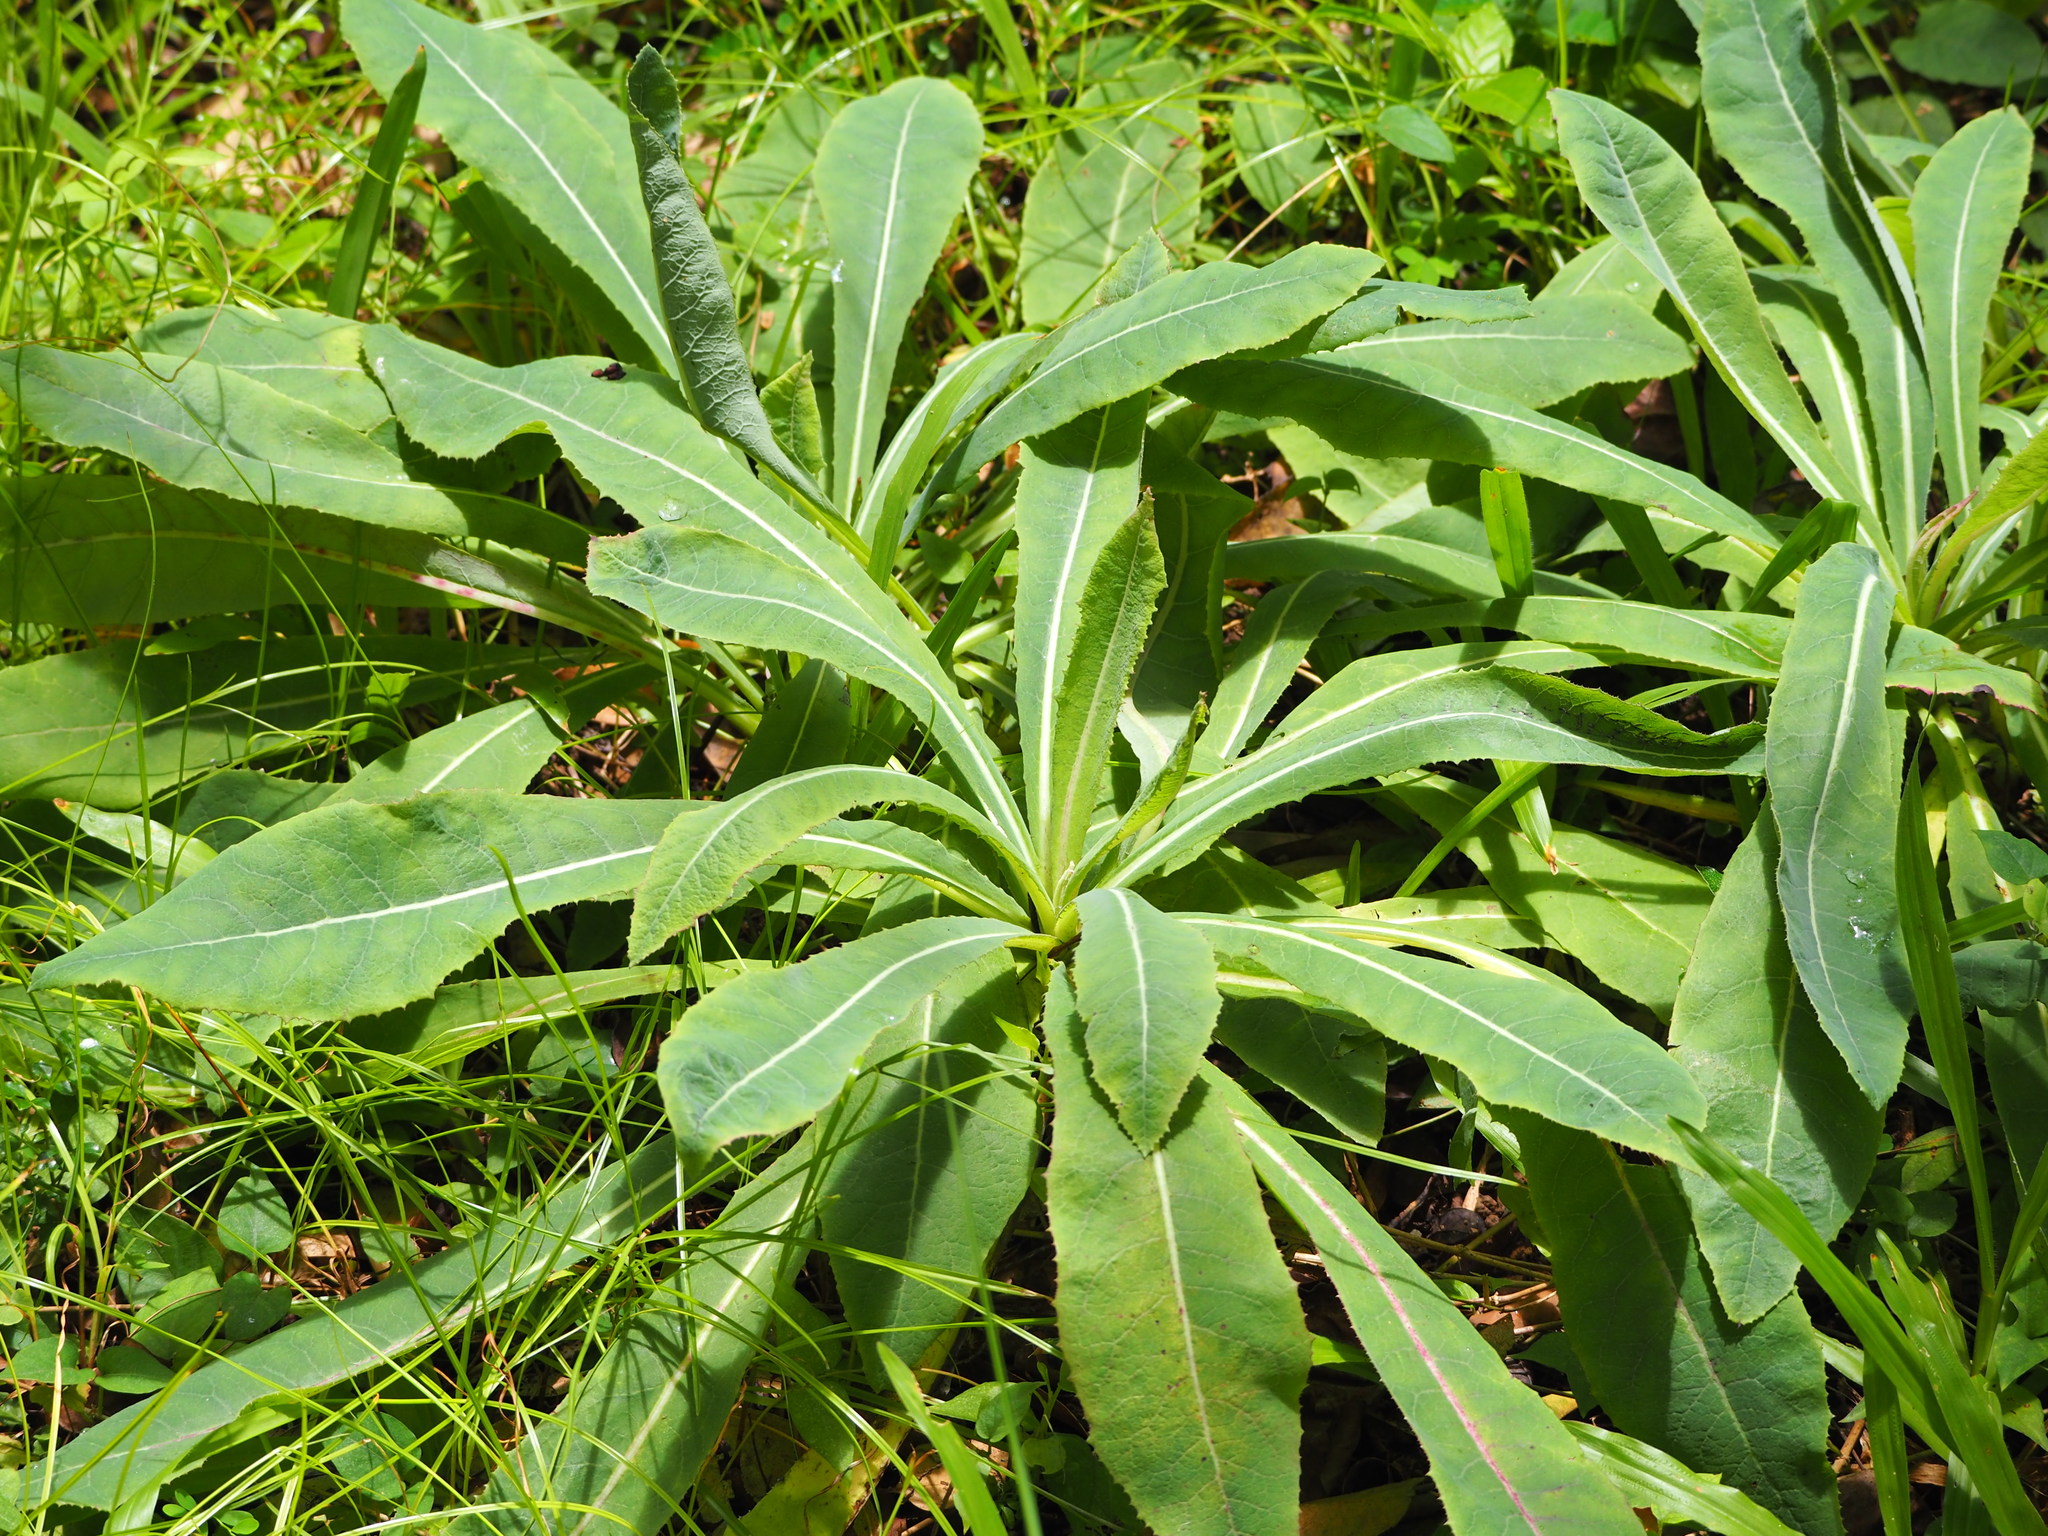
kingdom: Plantae
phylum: Tracheophyta
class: Magnoliopsida
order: Asterales
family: Asteraceae
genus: Sonchus
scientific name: Sonchus arvensis
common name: Perennial sow-thistle
